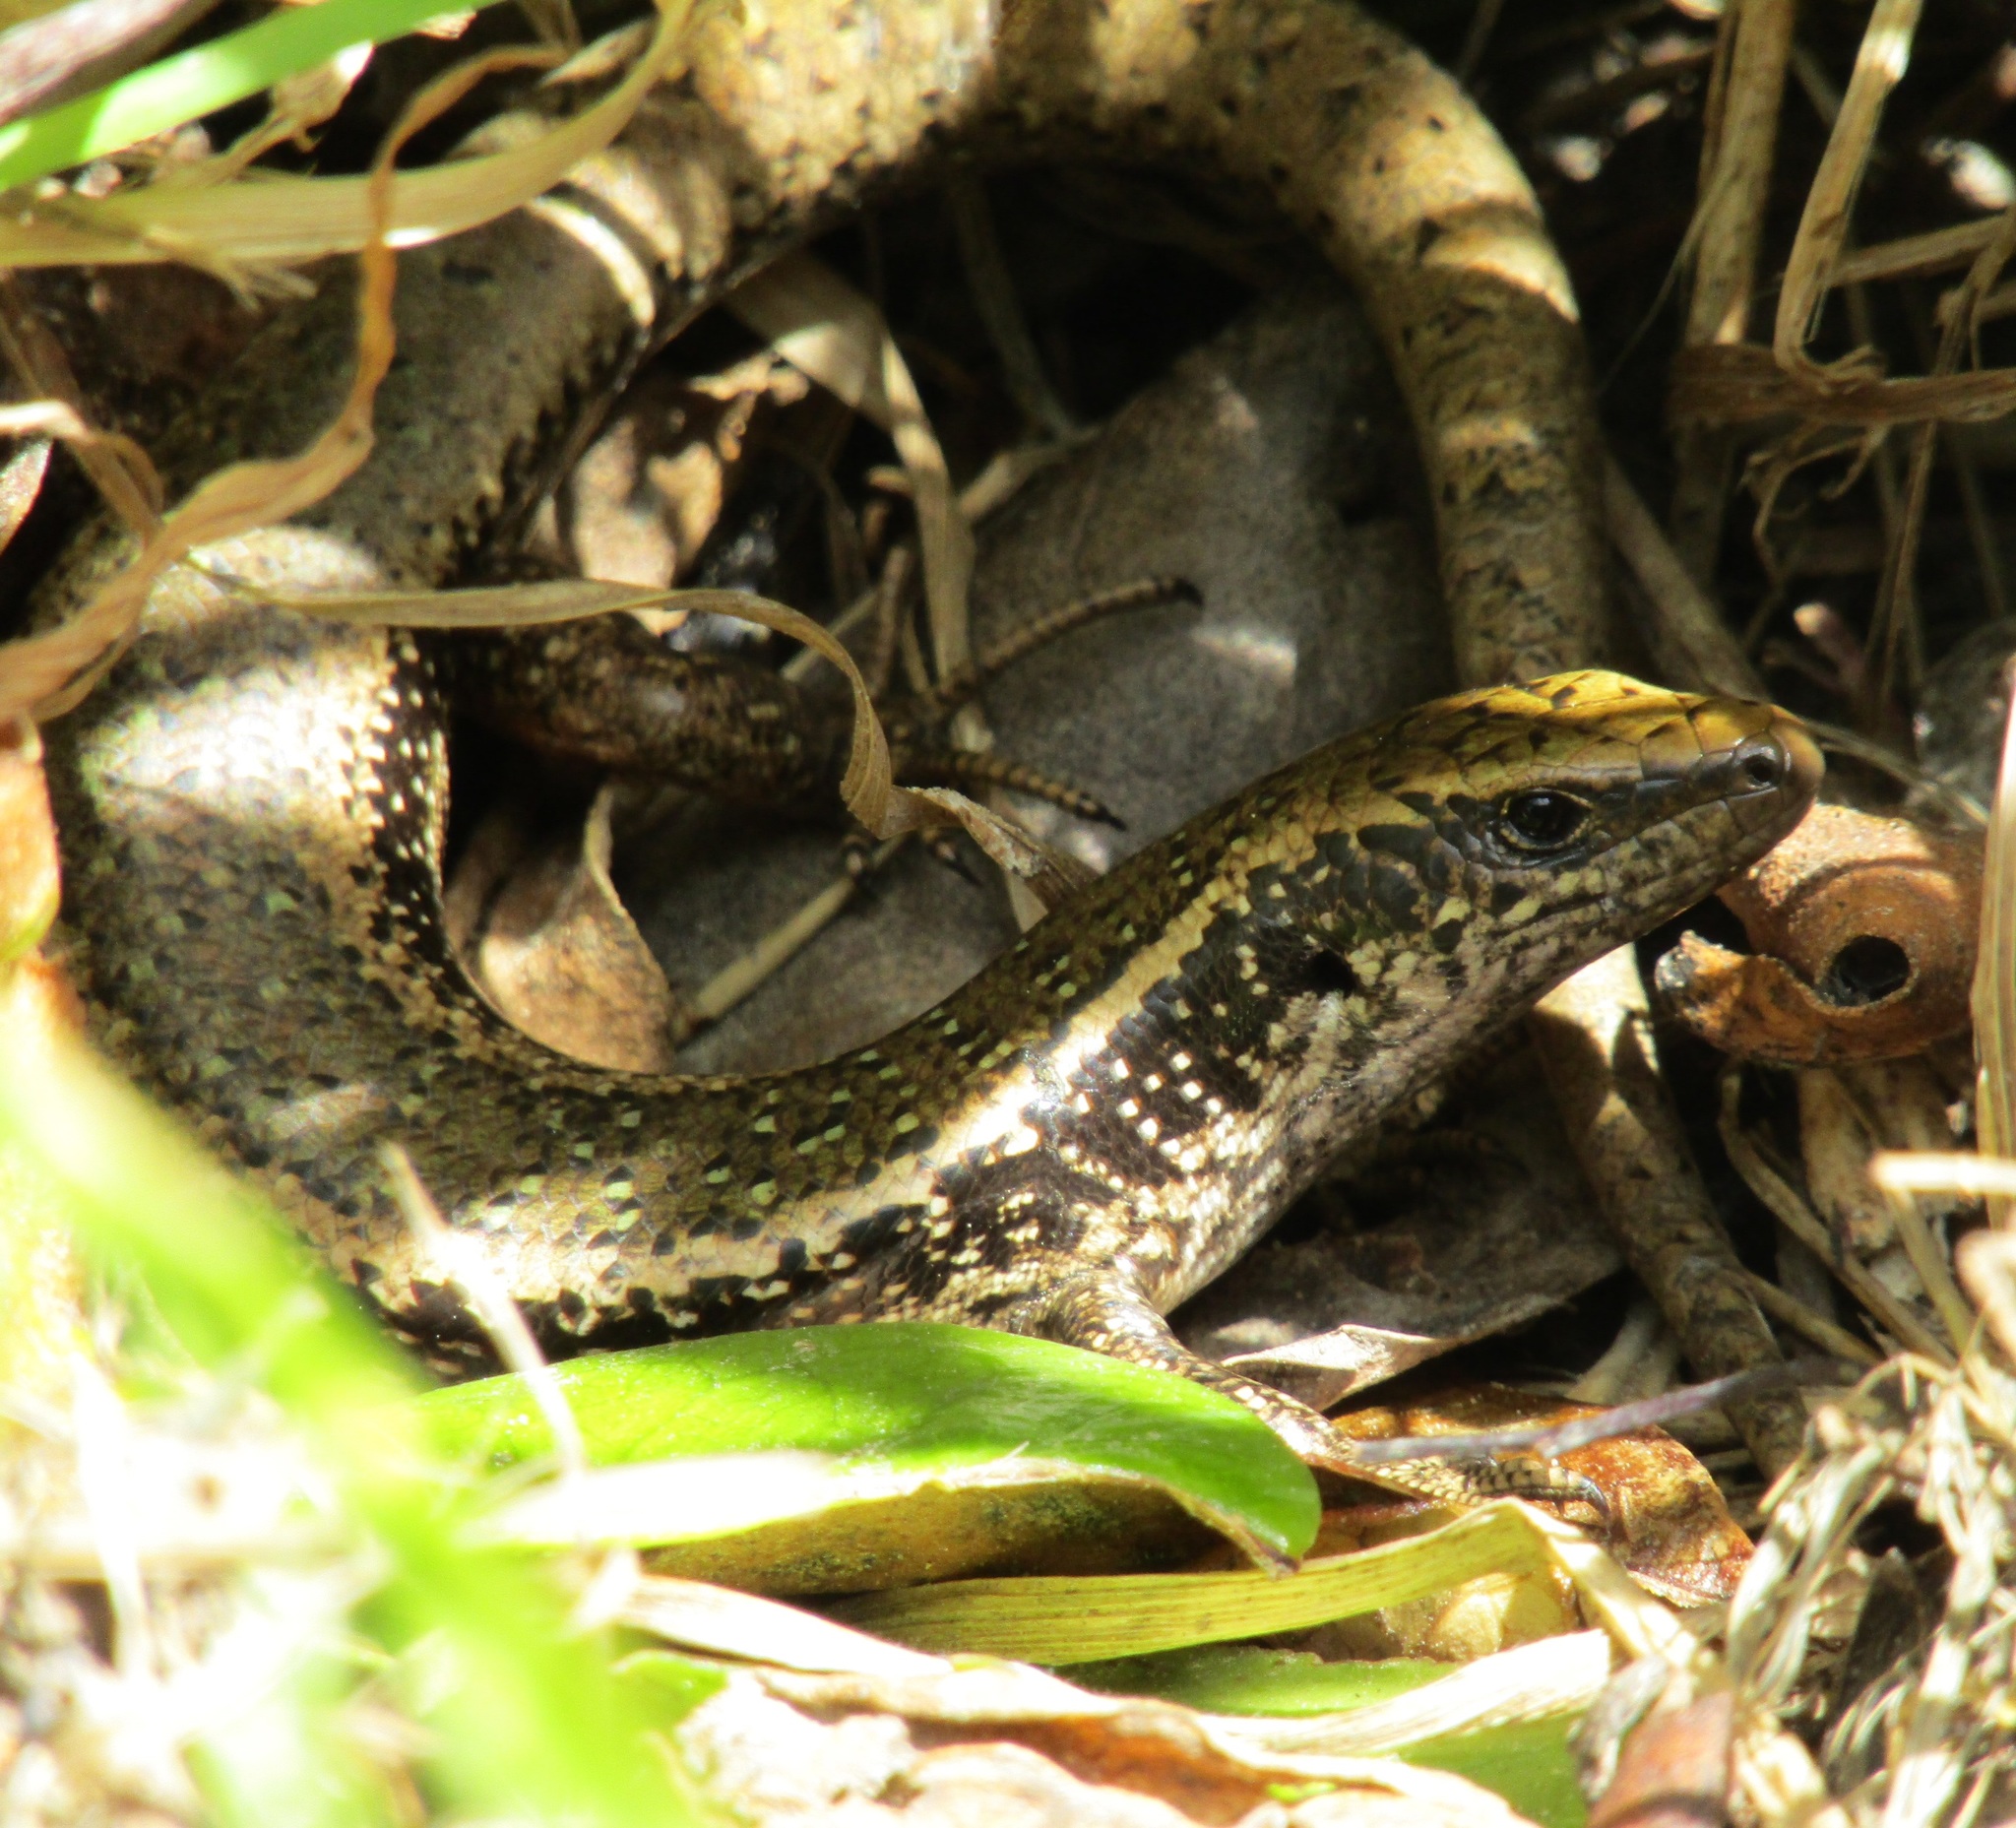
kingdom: Animalia
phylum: Chordata
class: Squamata
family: Scincidae
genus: Oligosoma
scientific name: Oligosoma kokowai
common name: Northern spotted skink
